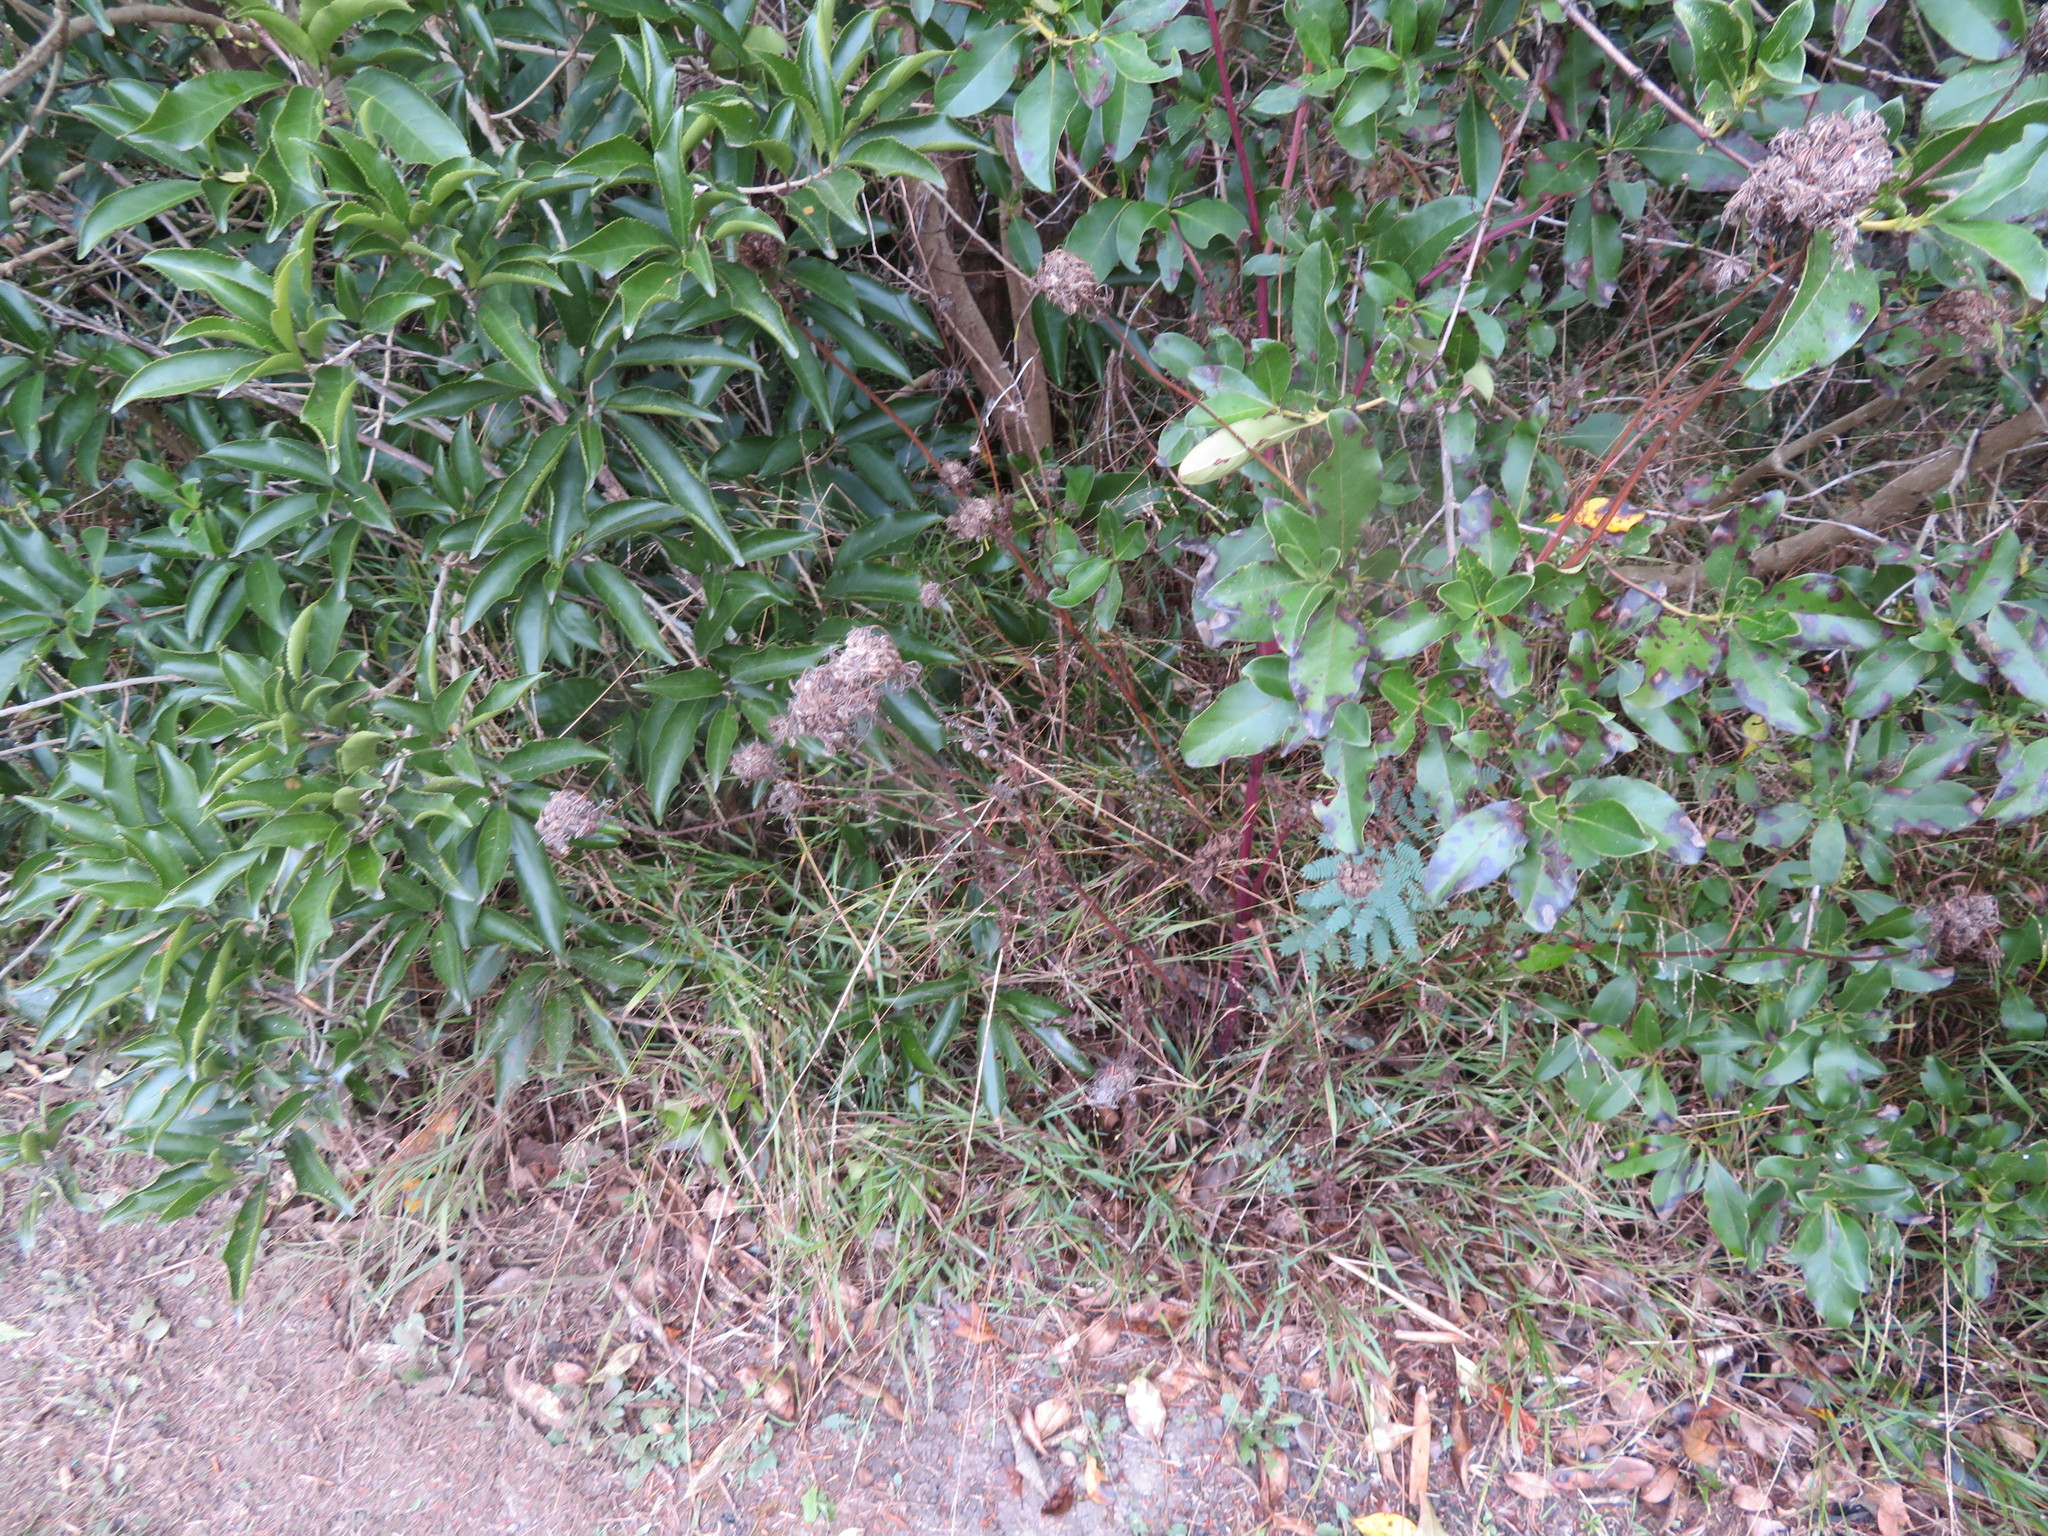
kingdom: Plantae
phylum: Tracheophyta
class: Magnoliopsida
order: Malpighiales
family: Violaceae
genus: Melicytus
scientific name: Melicytus ramiflorus
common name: Mahoe
